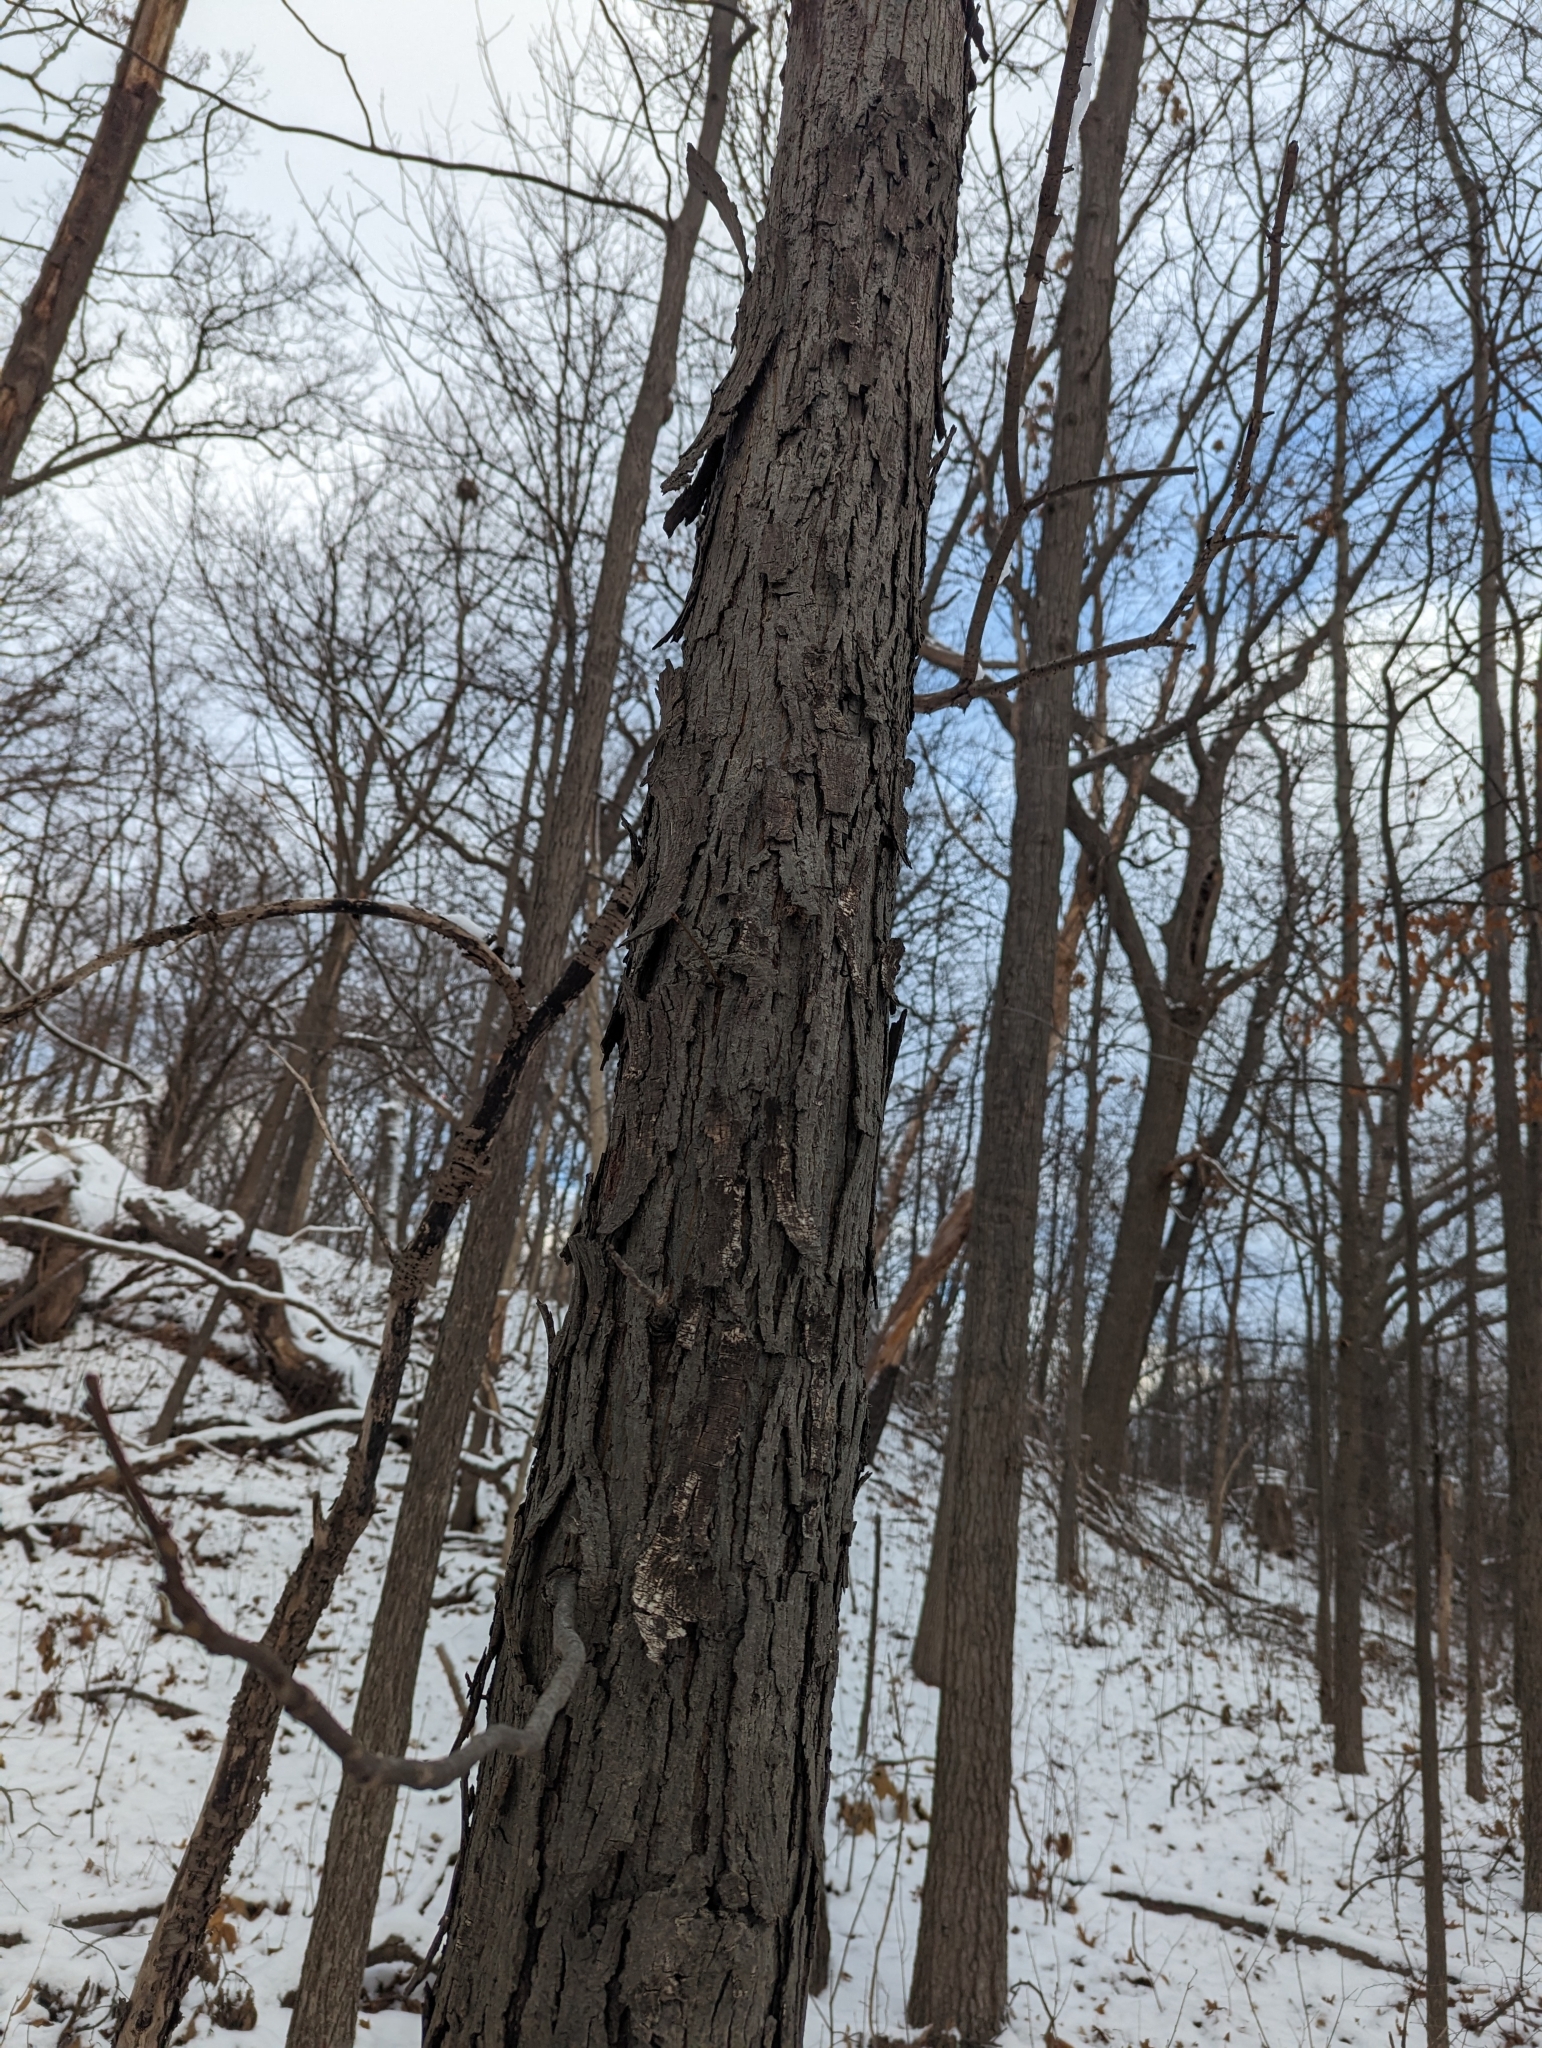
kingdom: Plantae
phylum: Tracheophyta
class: Magnoliopsida
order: Fagales
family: Juglandaceae
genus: Carya
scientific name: Carya ovata
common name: Shagbark hickory
